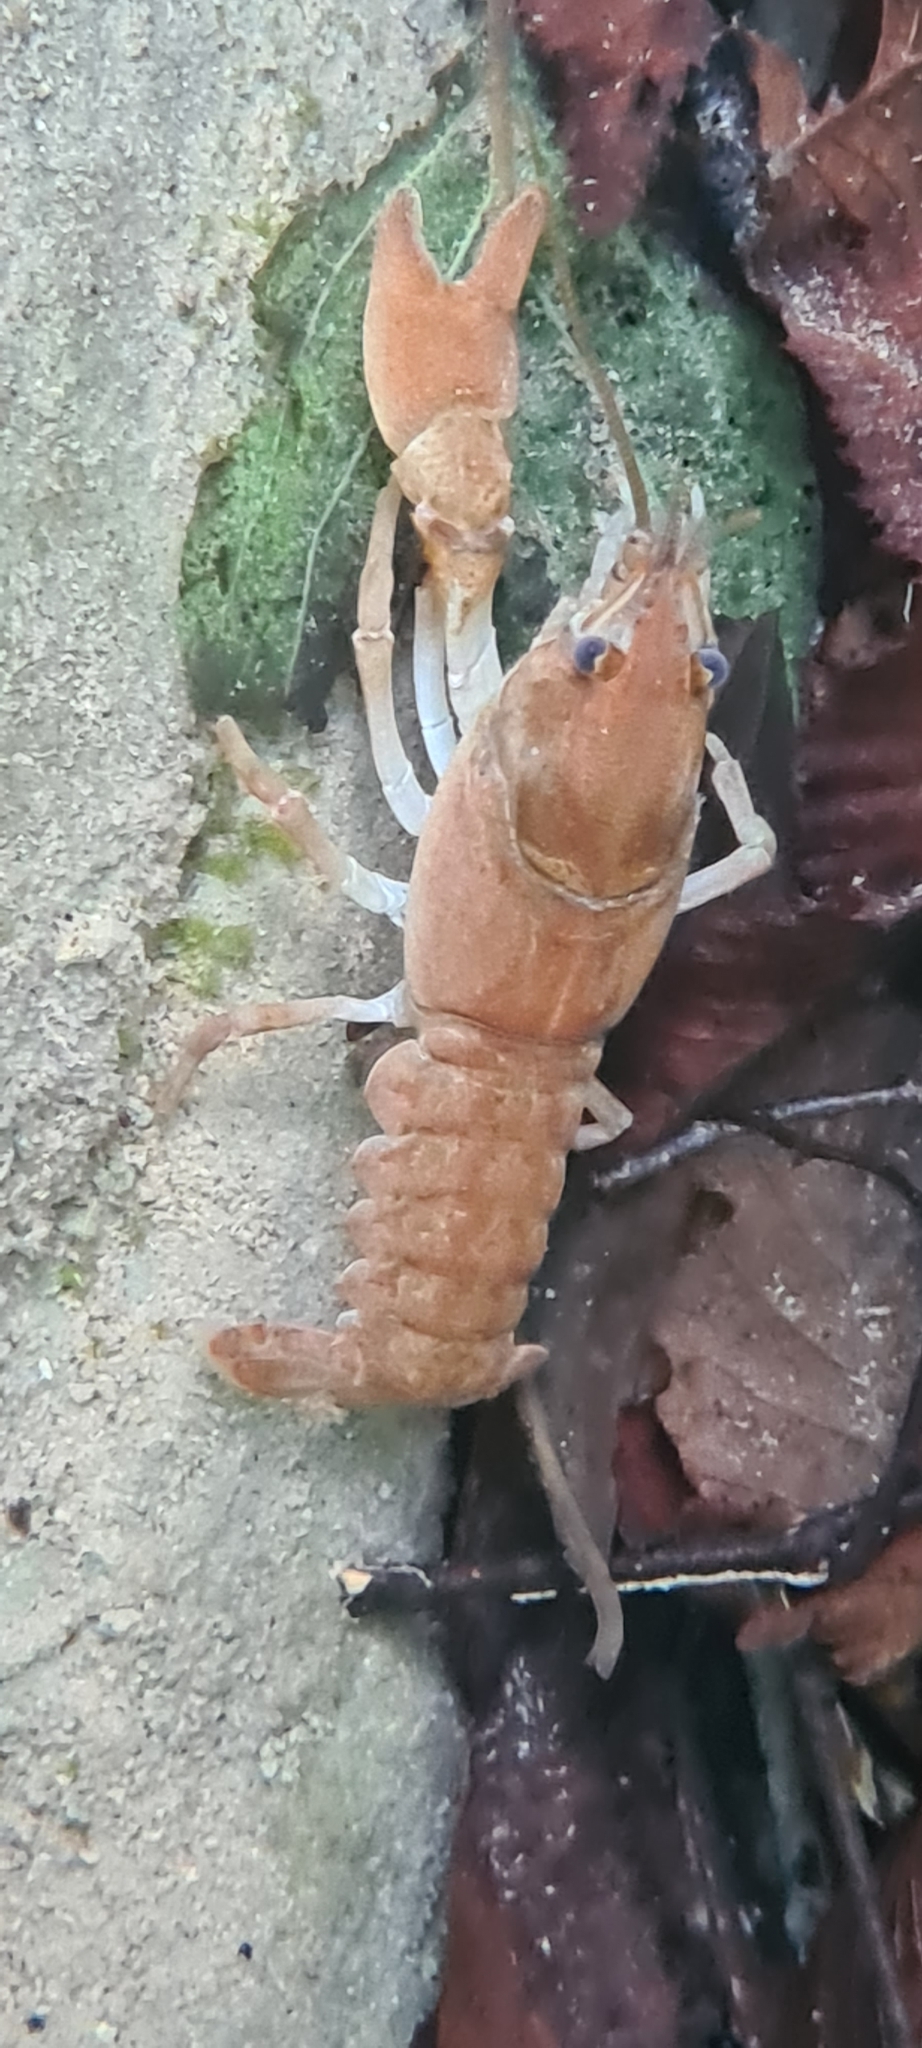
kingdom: Animalia
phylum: Arthropoda
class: Malacostraca
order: Decapoda
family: Astacidae
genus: Austropotamobius
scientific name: Austropotamobius pallipes
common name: White-clawed crayfish
